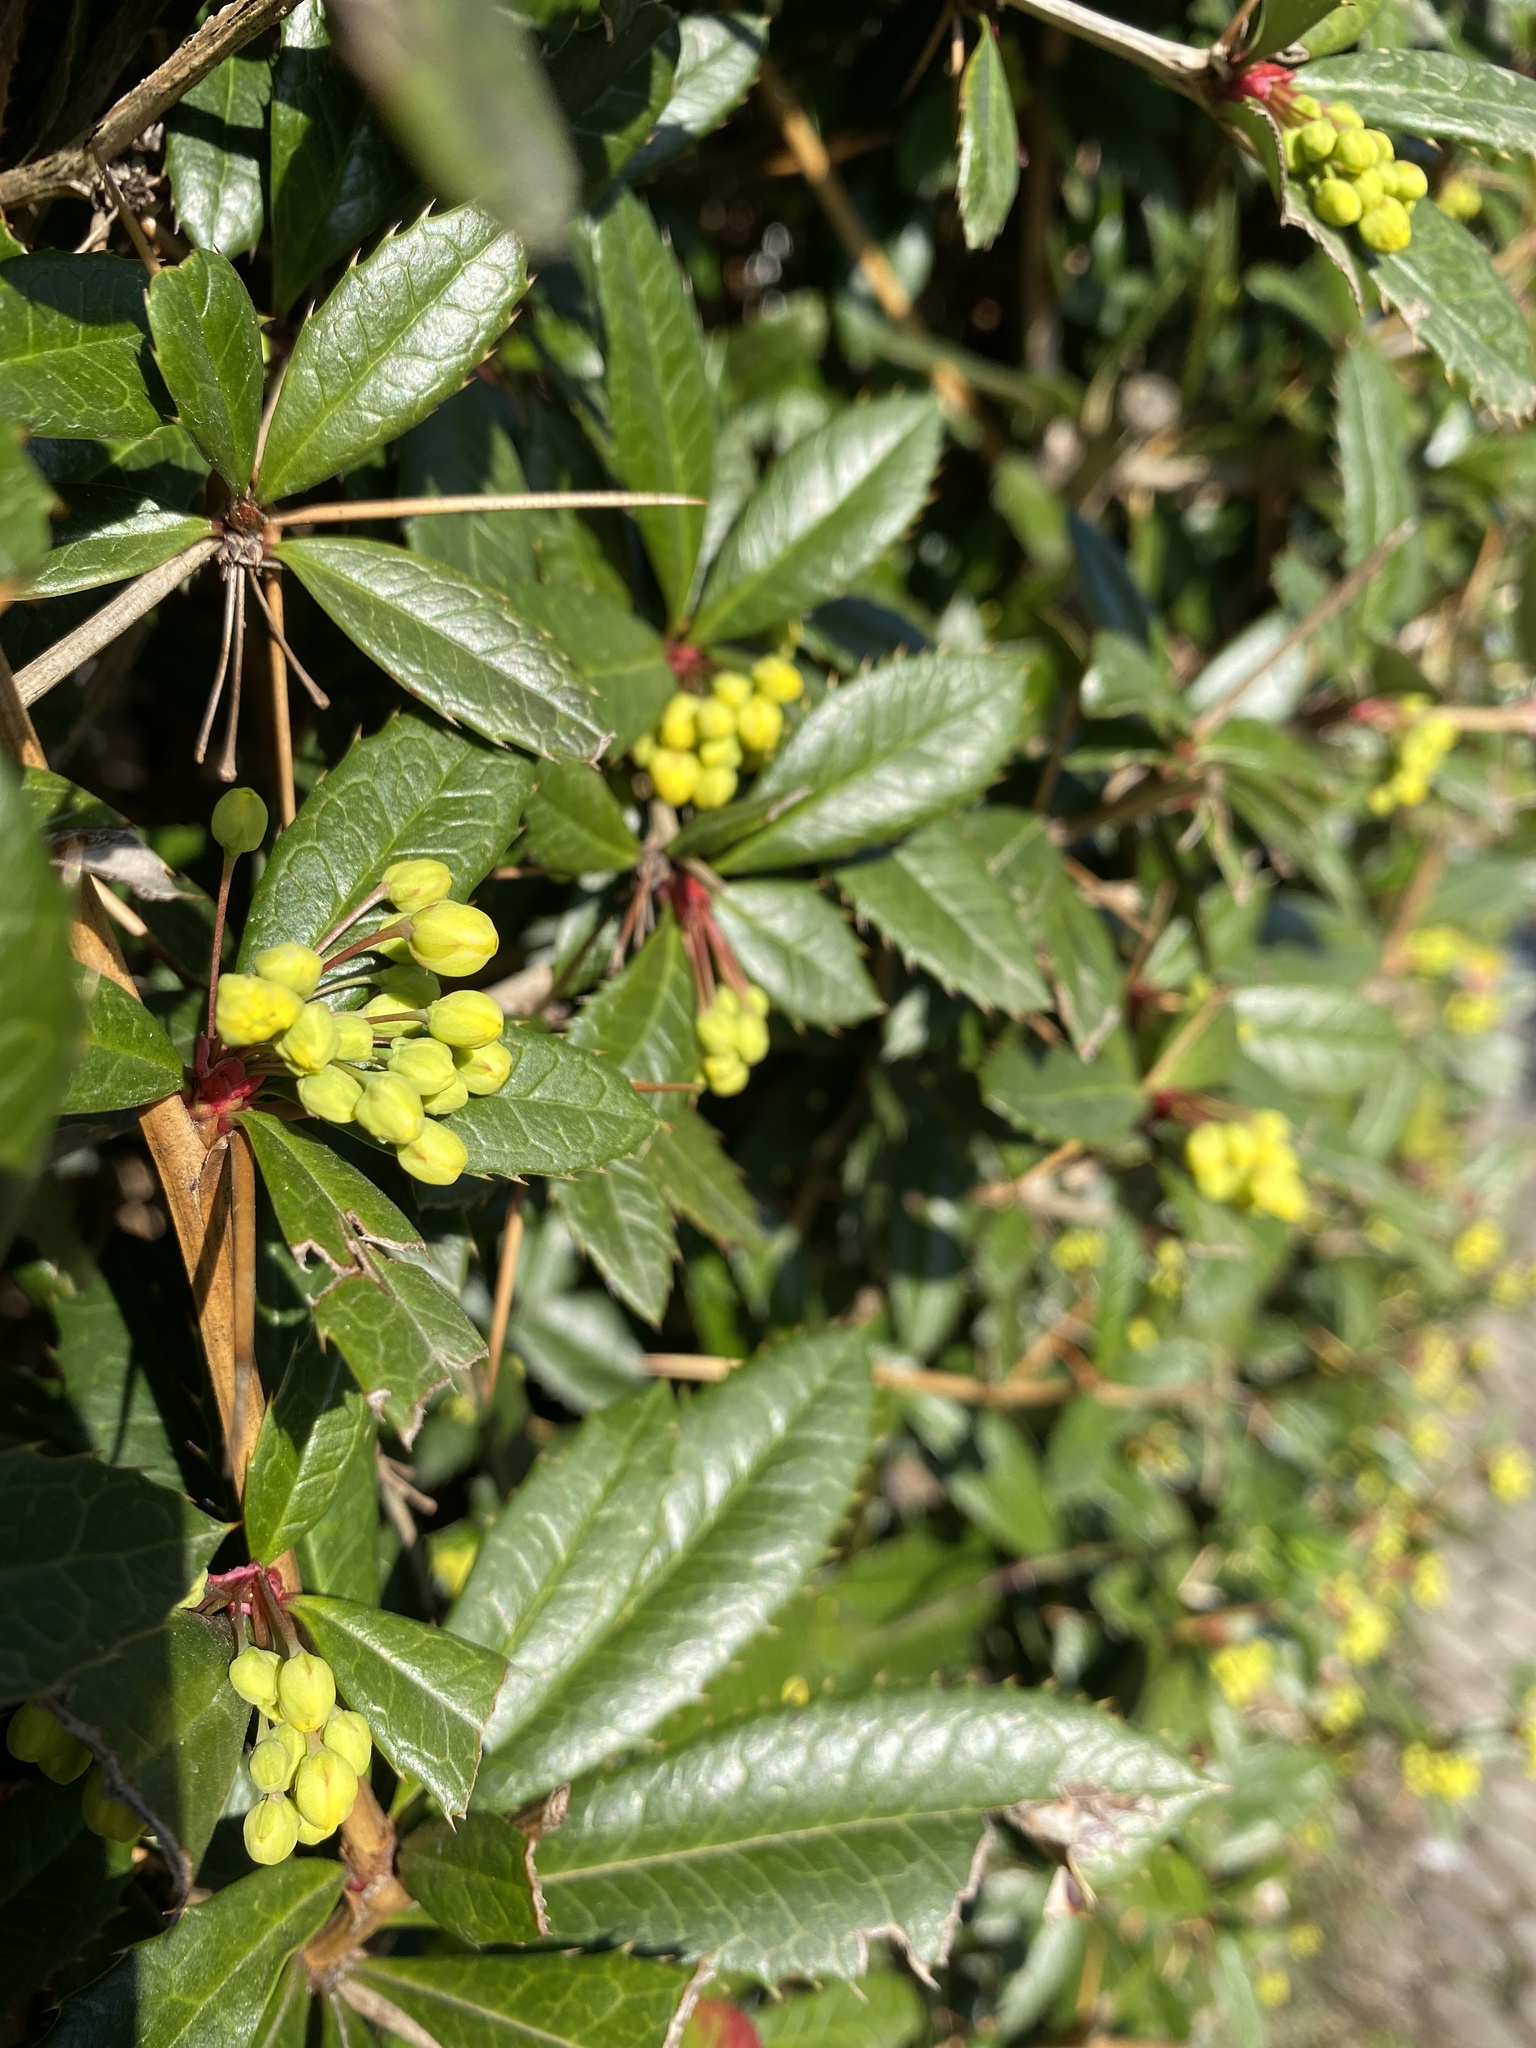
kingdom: Plantae
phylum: Tracheophyta
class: Magnoliopsida
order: Ranunculales
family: Berberidaceae
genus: Berberis
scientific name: Berberis julianae
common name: Wintergreen barberry
